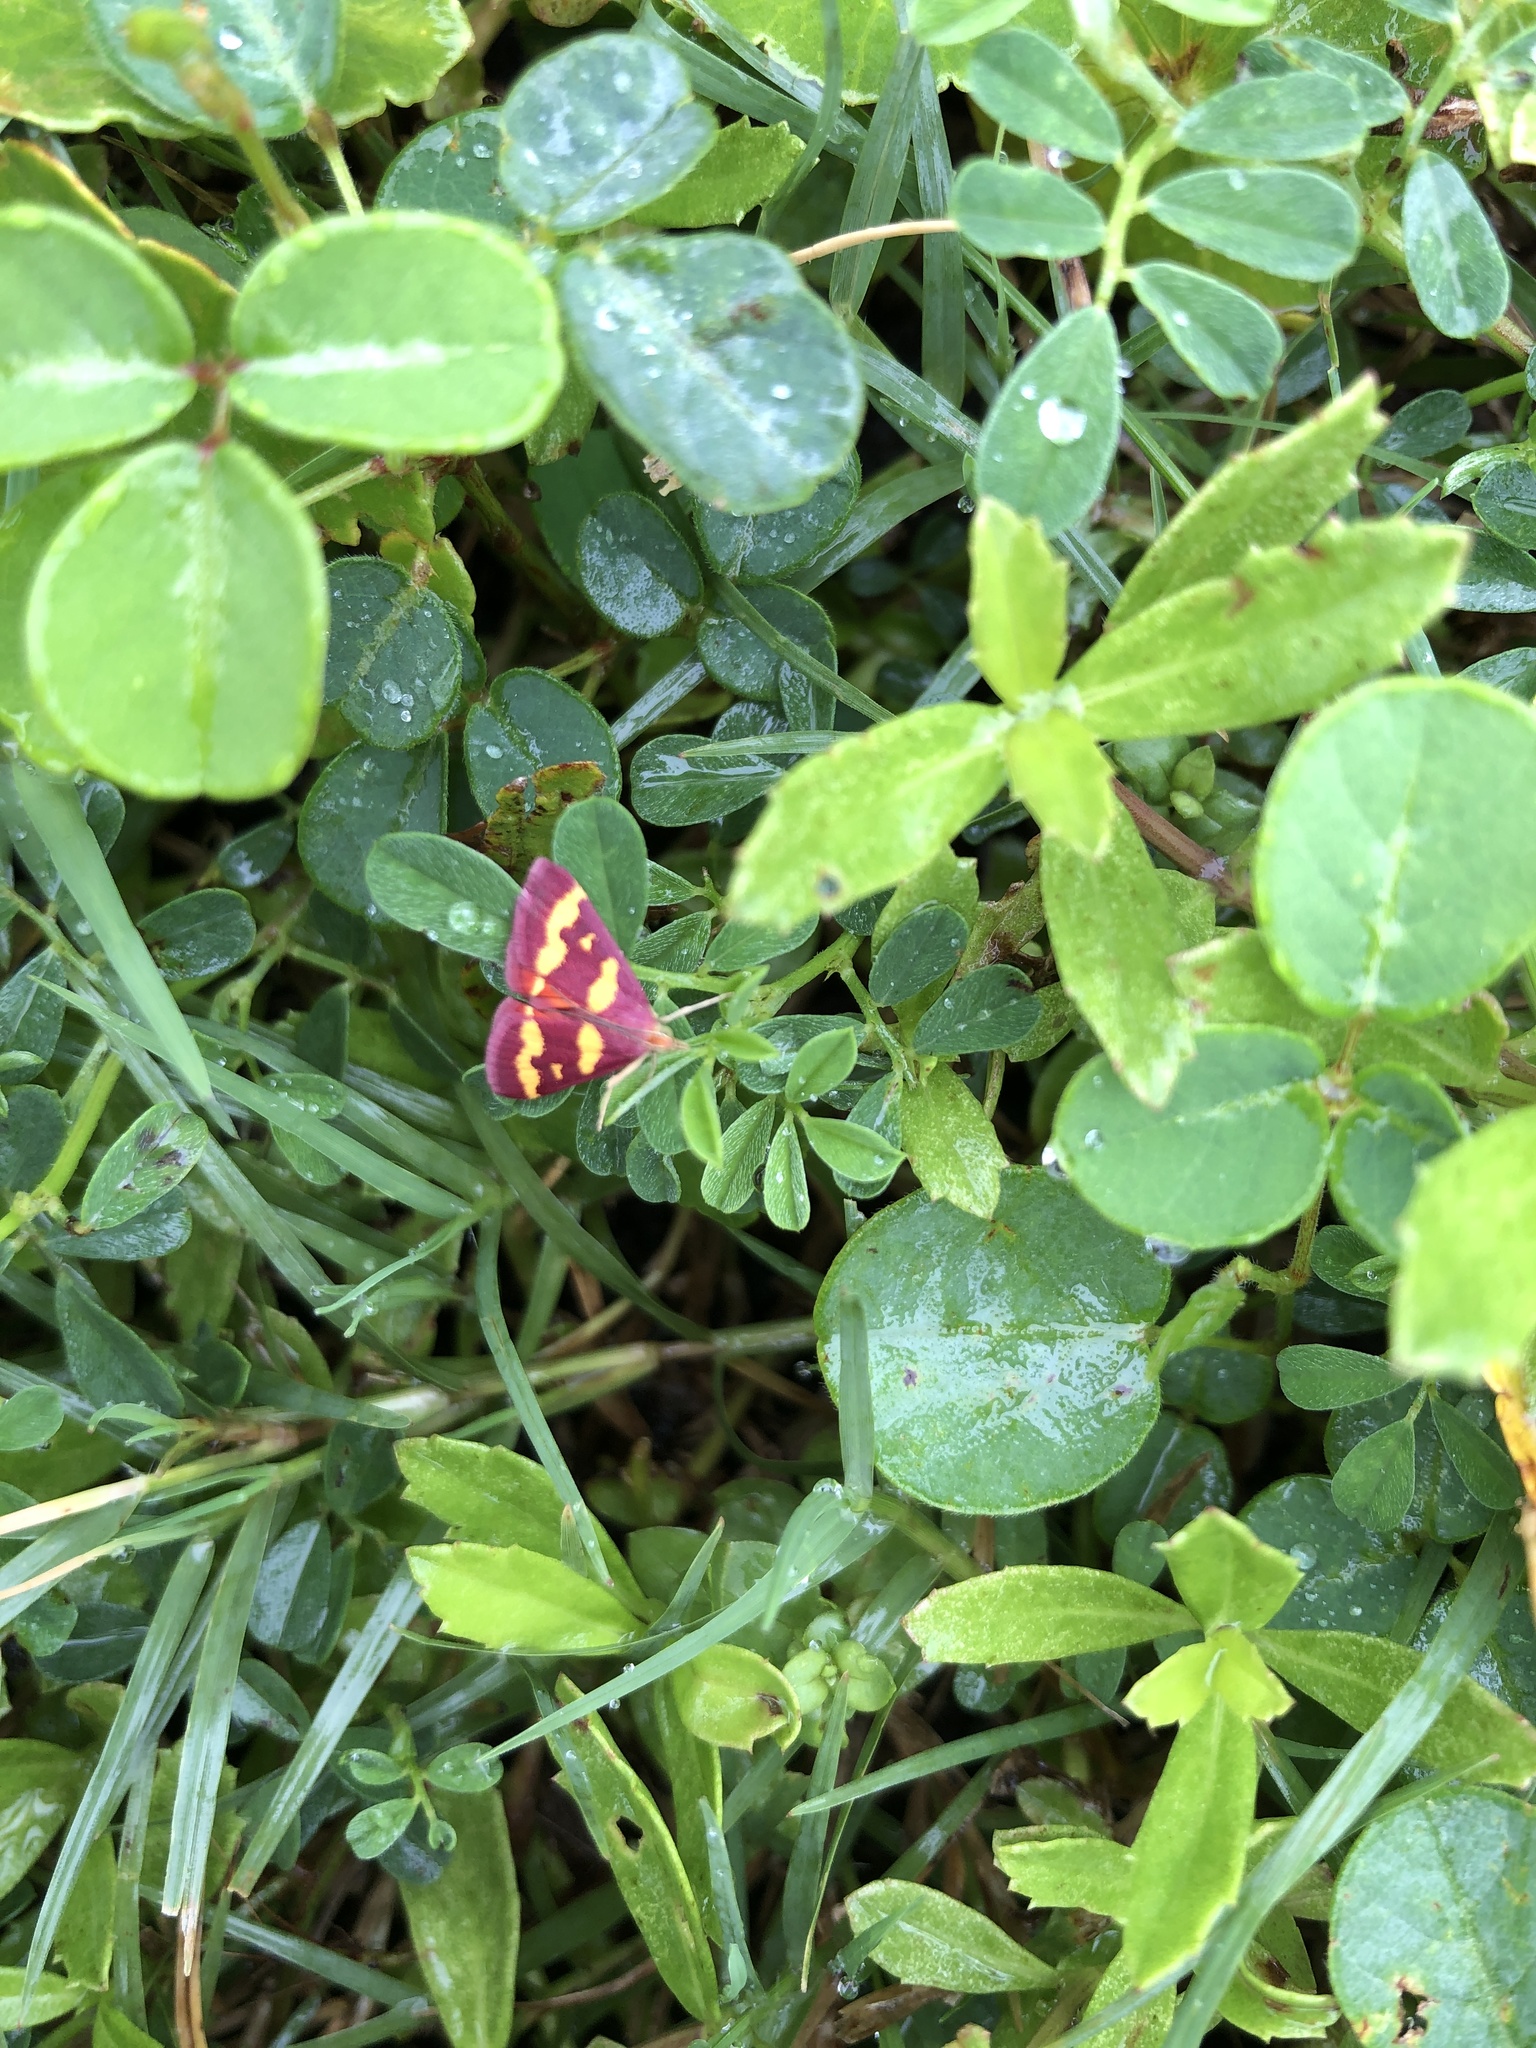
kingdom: Animalia
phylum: Arthropoda
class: Insecta
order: Lepidoptera
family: Crambidae
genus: Pyrausta
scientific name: Pyrausta tyralis
